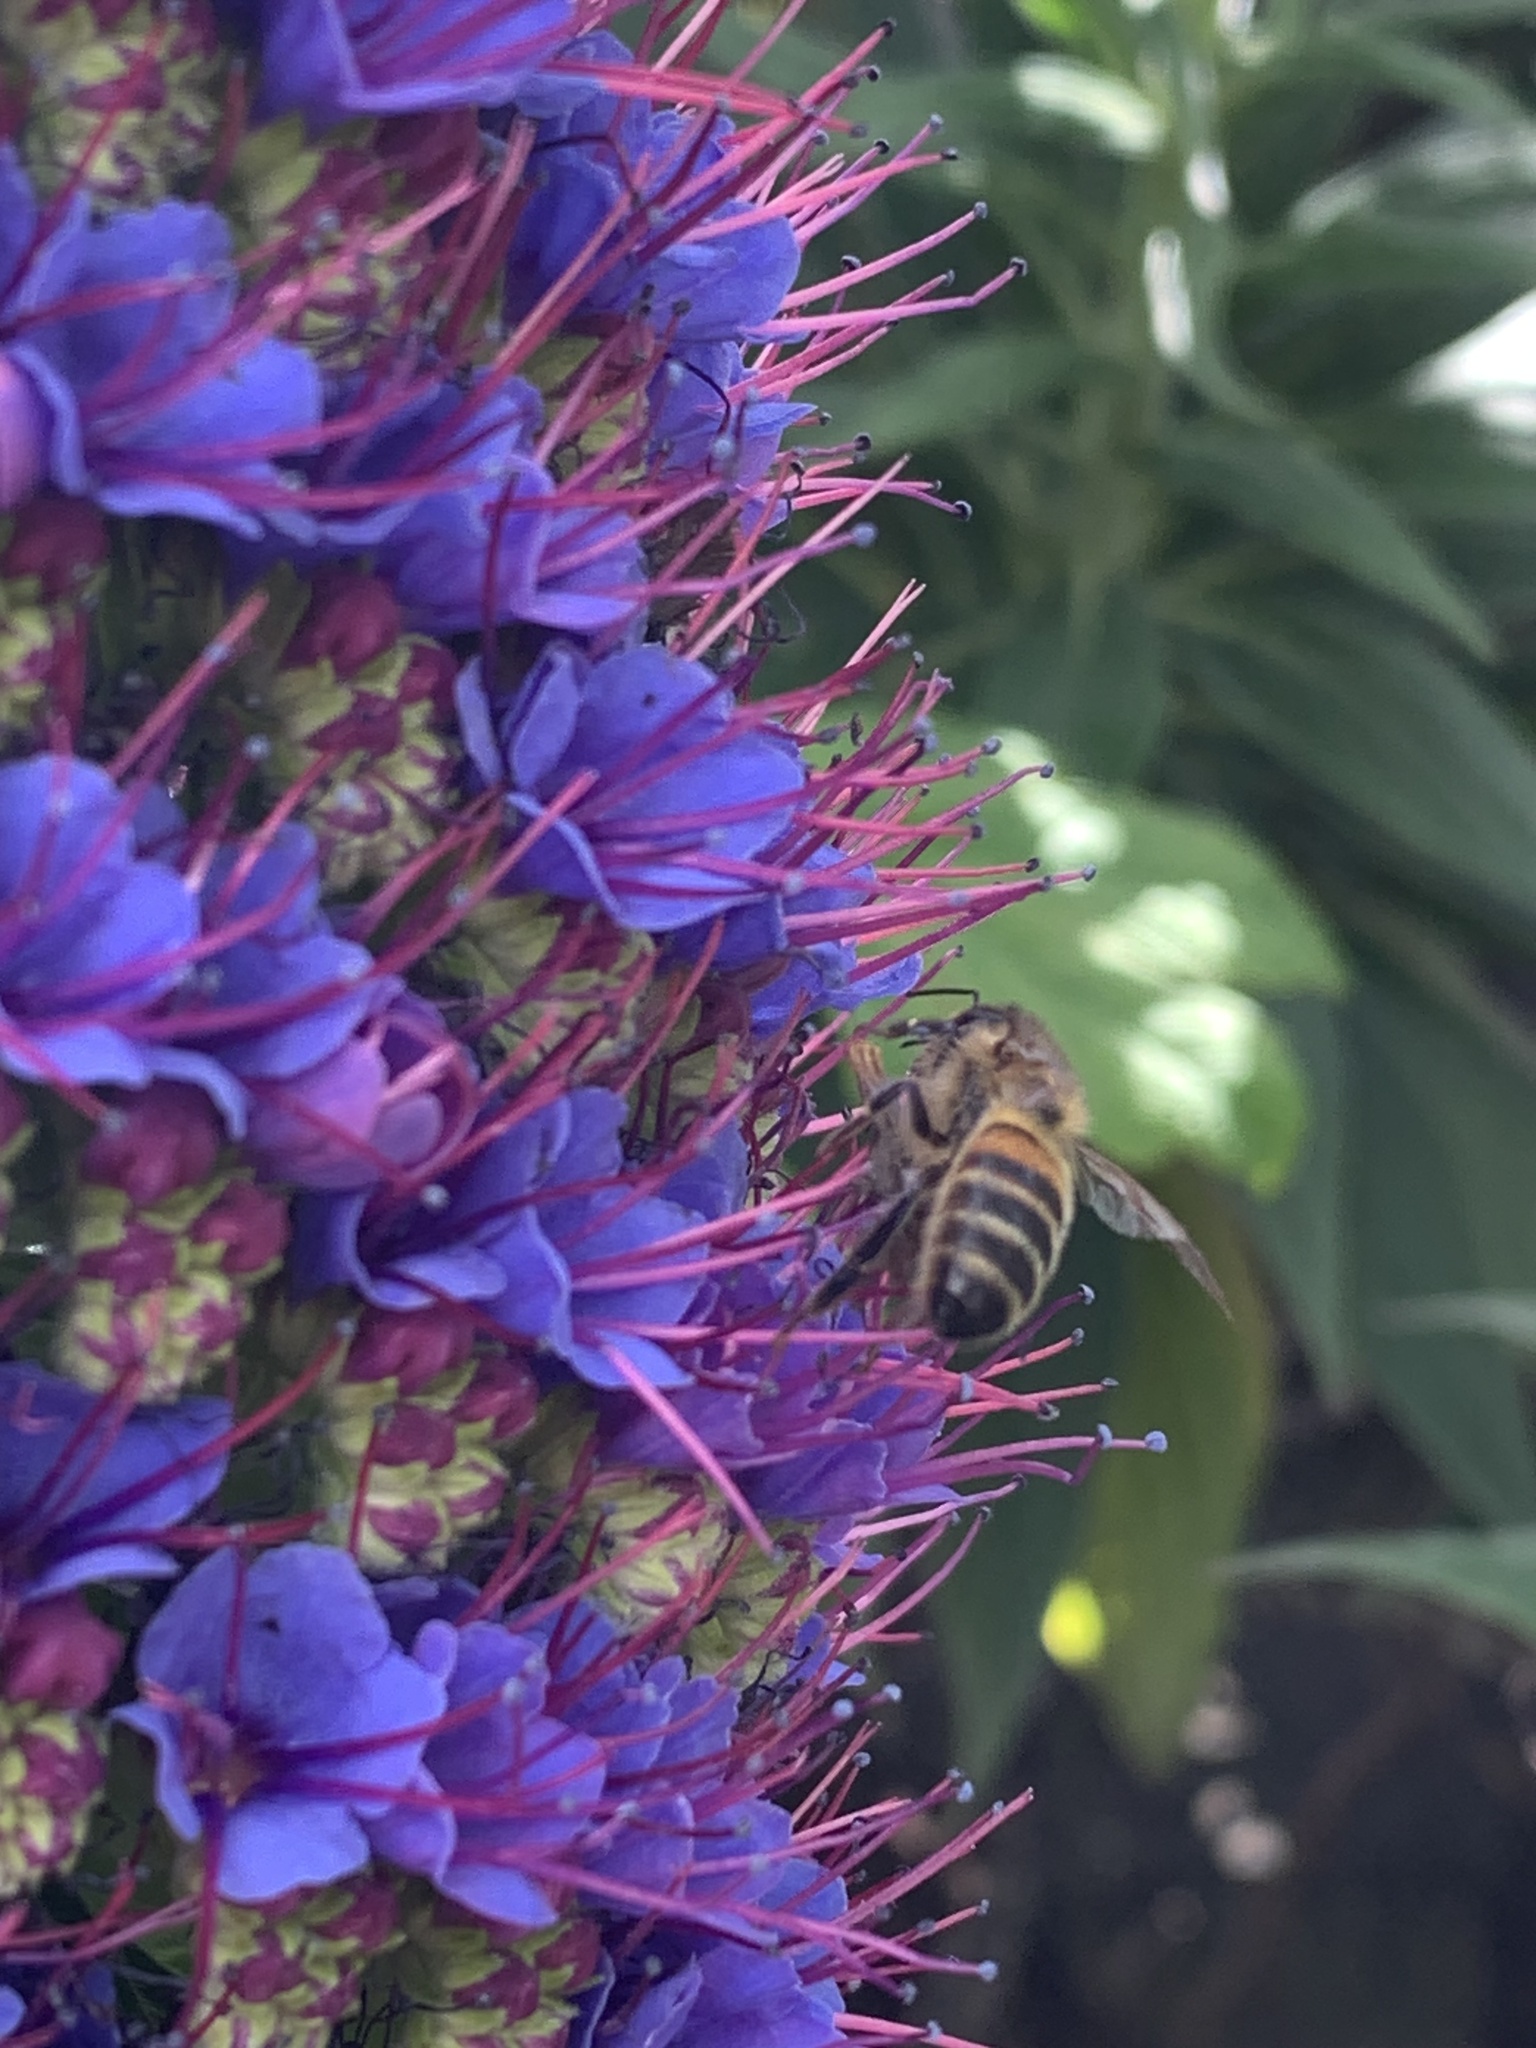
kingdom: Animalia
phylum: Arthropoda
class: Insecta
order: Hymenoptera
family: Apidae
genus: Apis
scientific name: Apis mellifera
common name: Honey bee
